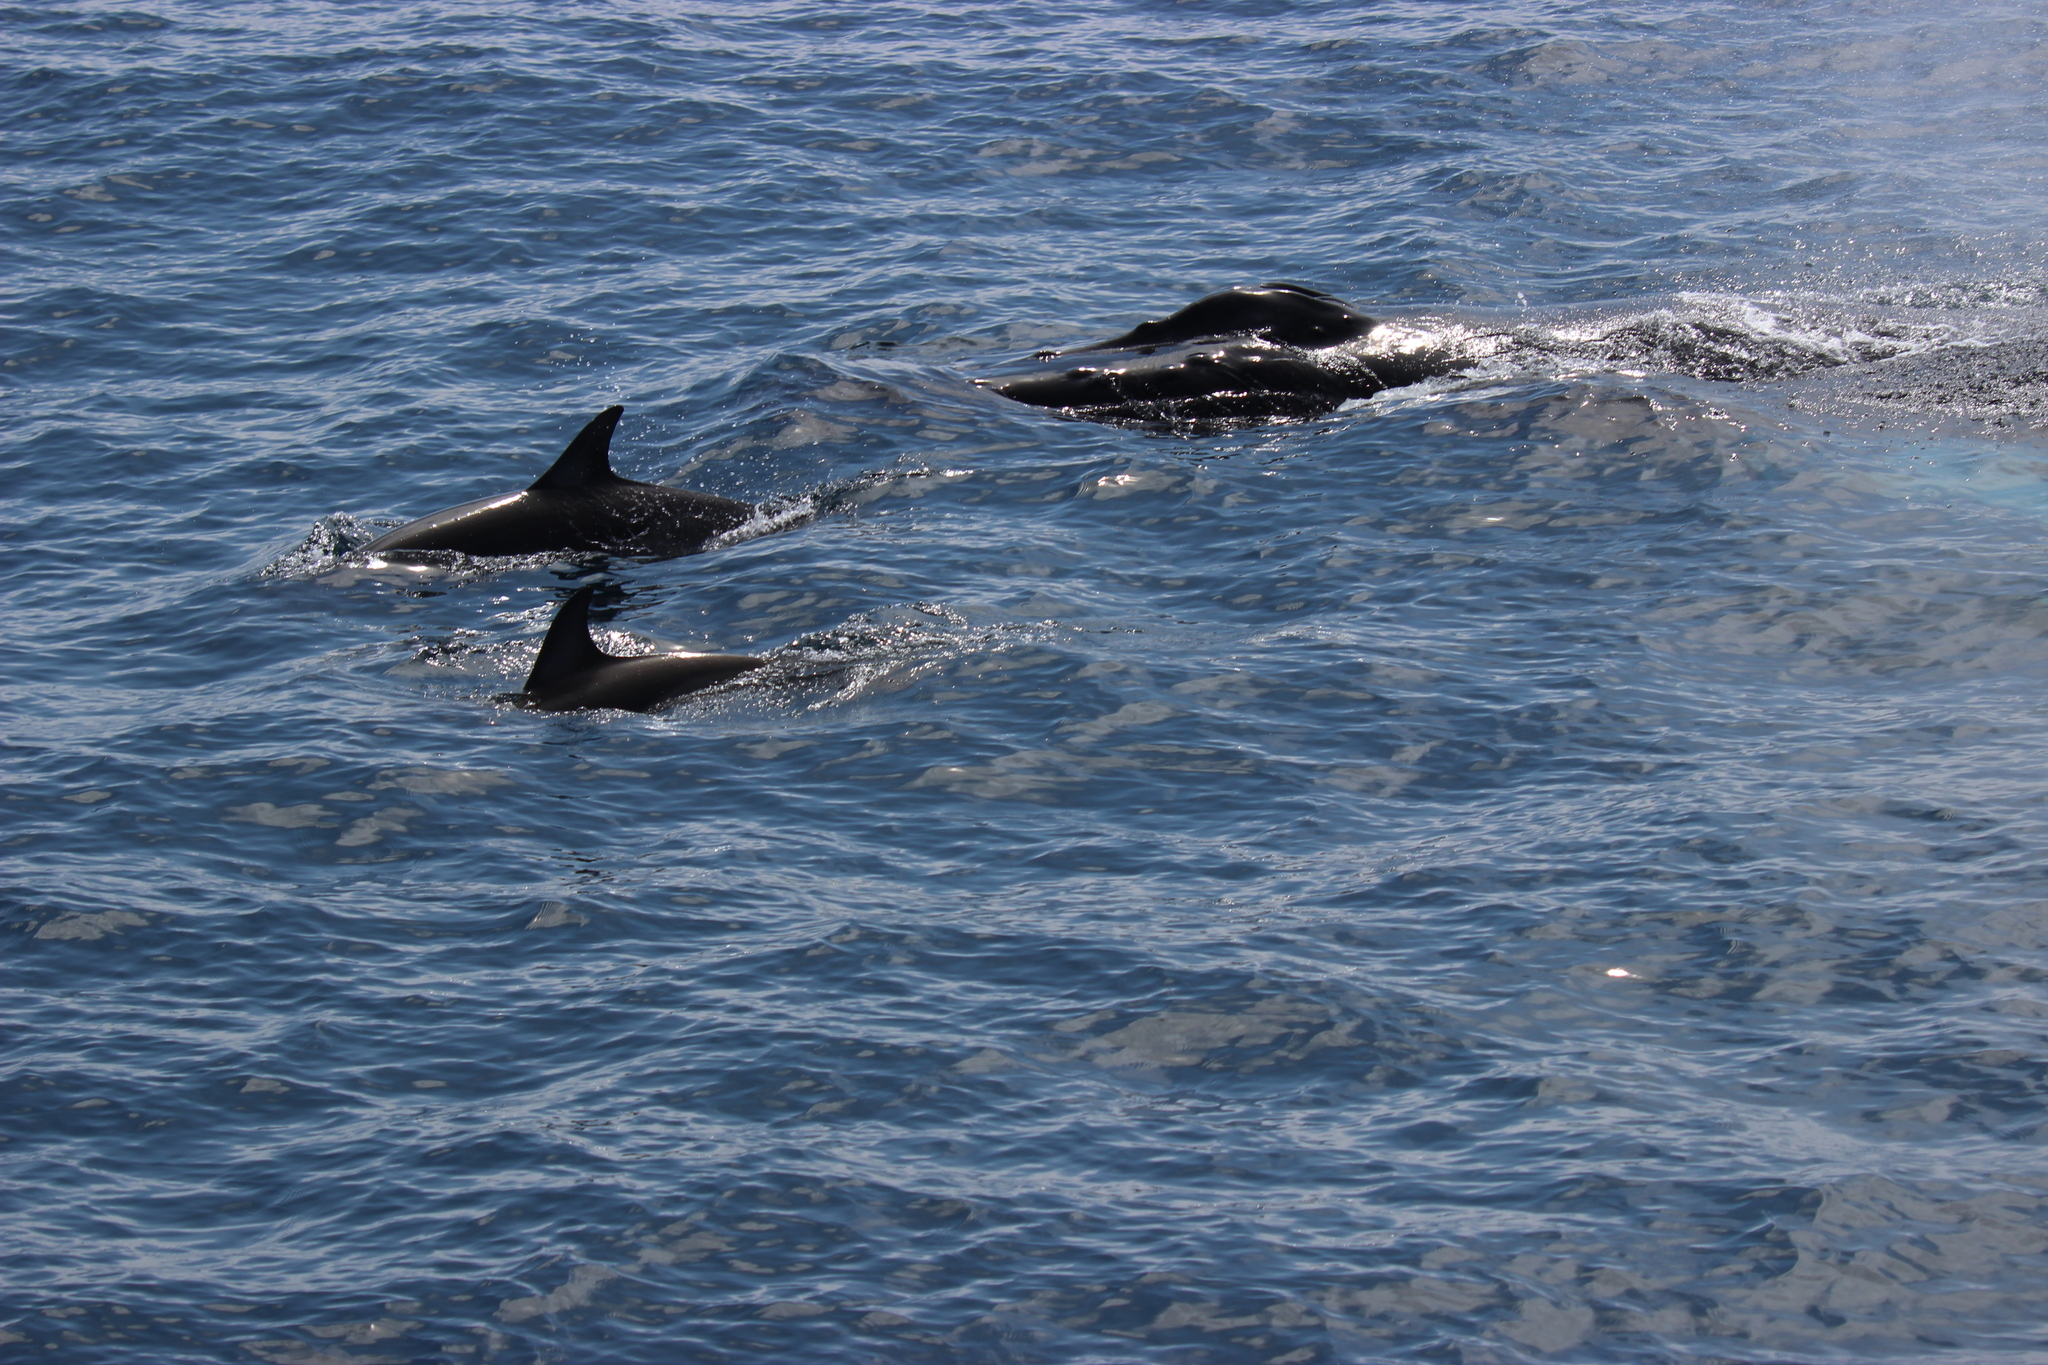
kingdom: Animalia
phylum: Chordata
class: Mammalia
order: Cetacea
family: Balaenopteridae
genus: Megaptera
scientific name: Megaptera novaeangliae
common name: Humpback whale
